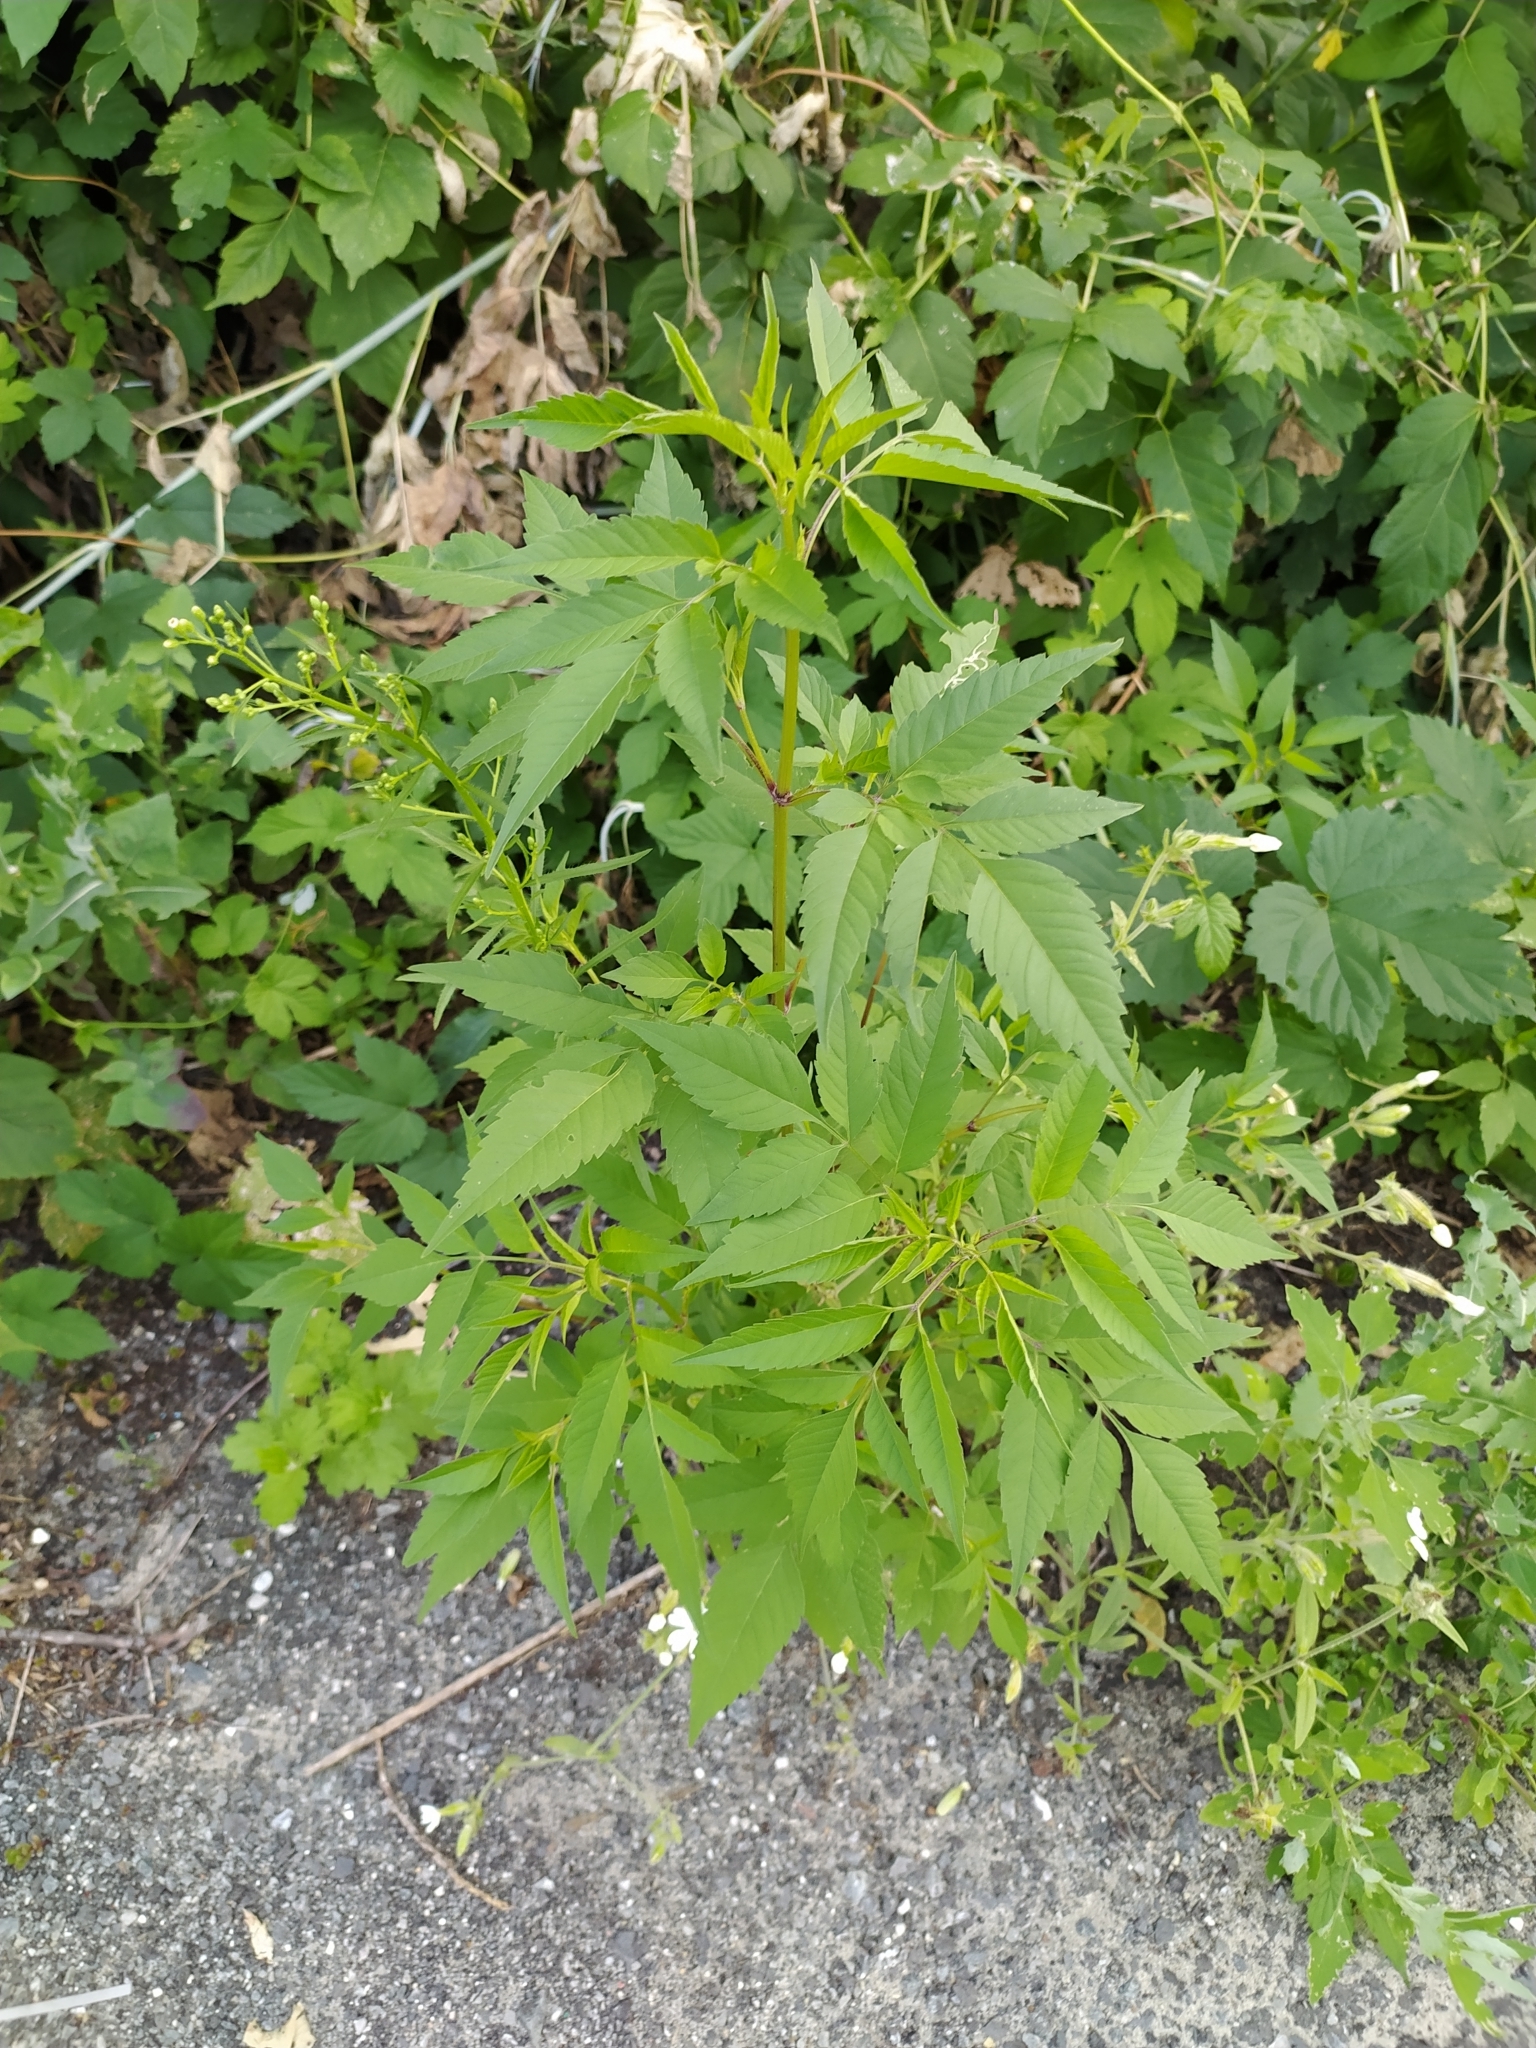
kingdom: Plantae
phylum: Tracheophyta
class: Magnoliopsida
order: Asterales
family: Asteraceae
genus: Bidens
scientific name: Bidens frondosa
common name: Beggarticks
